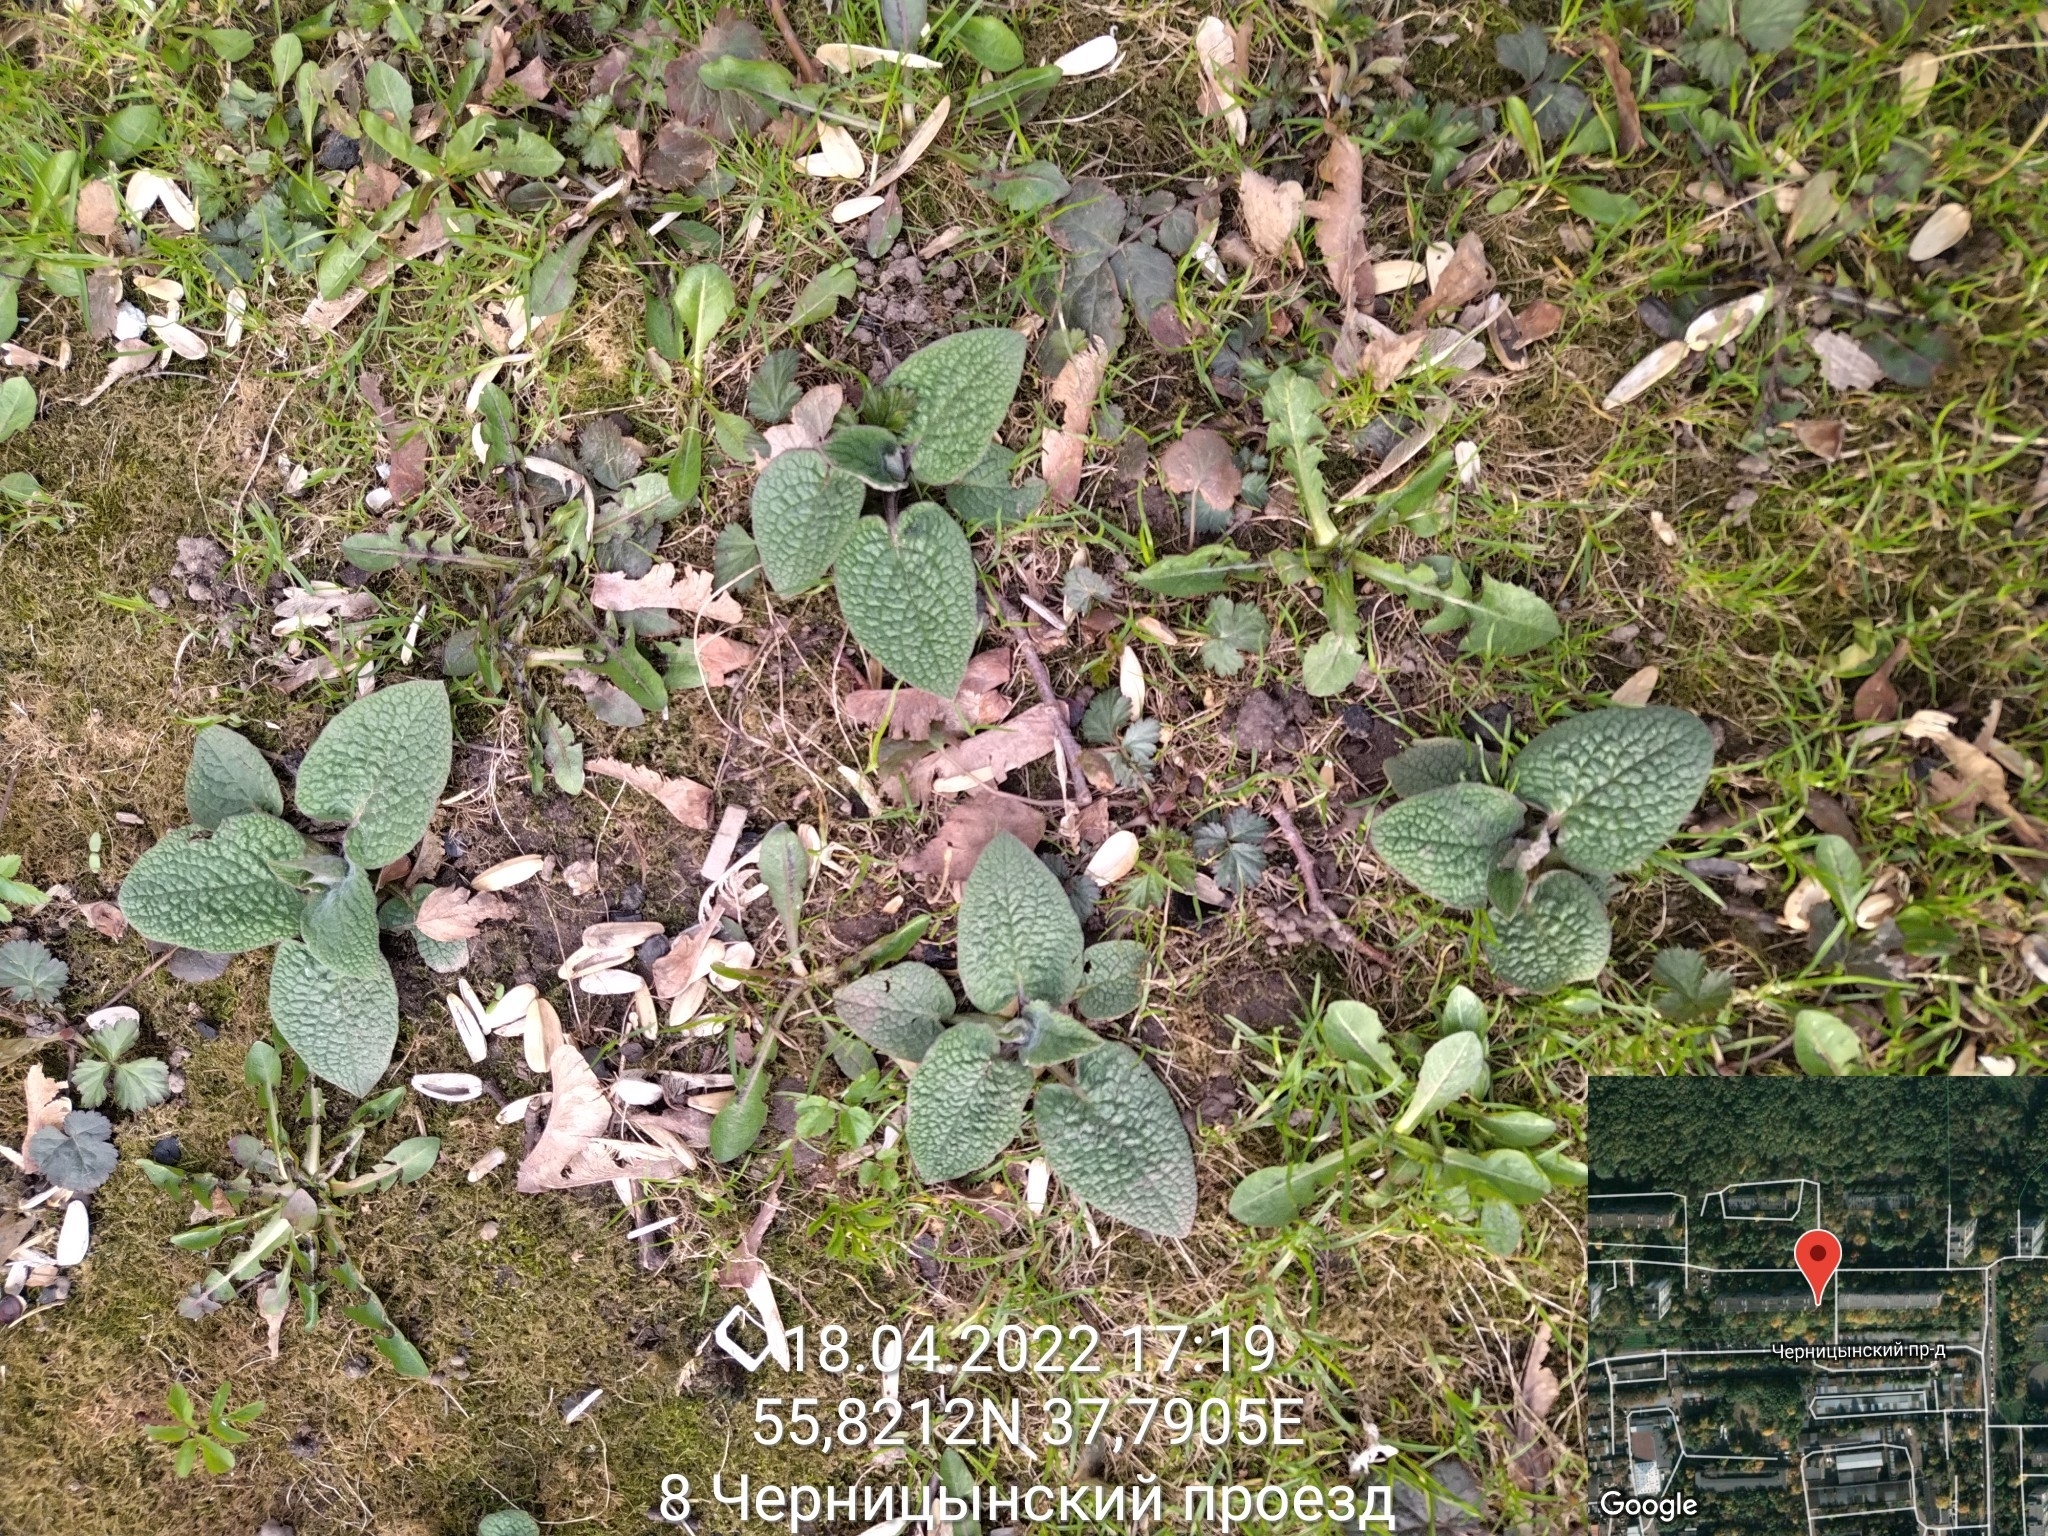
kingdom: Plantae
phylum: Tracheophyta
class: Magnoliopsida
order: Boraginales
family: Boraginaceae
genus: Symphytum
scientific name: Symphytum
